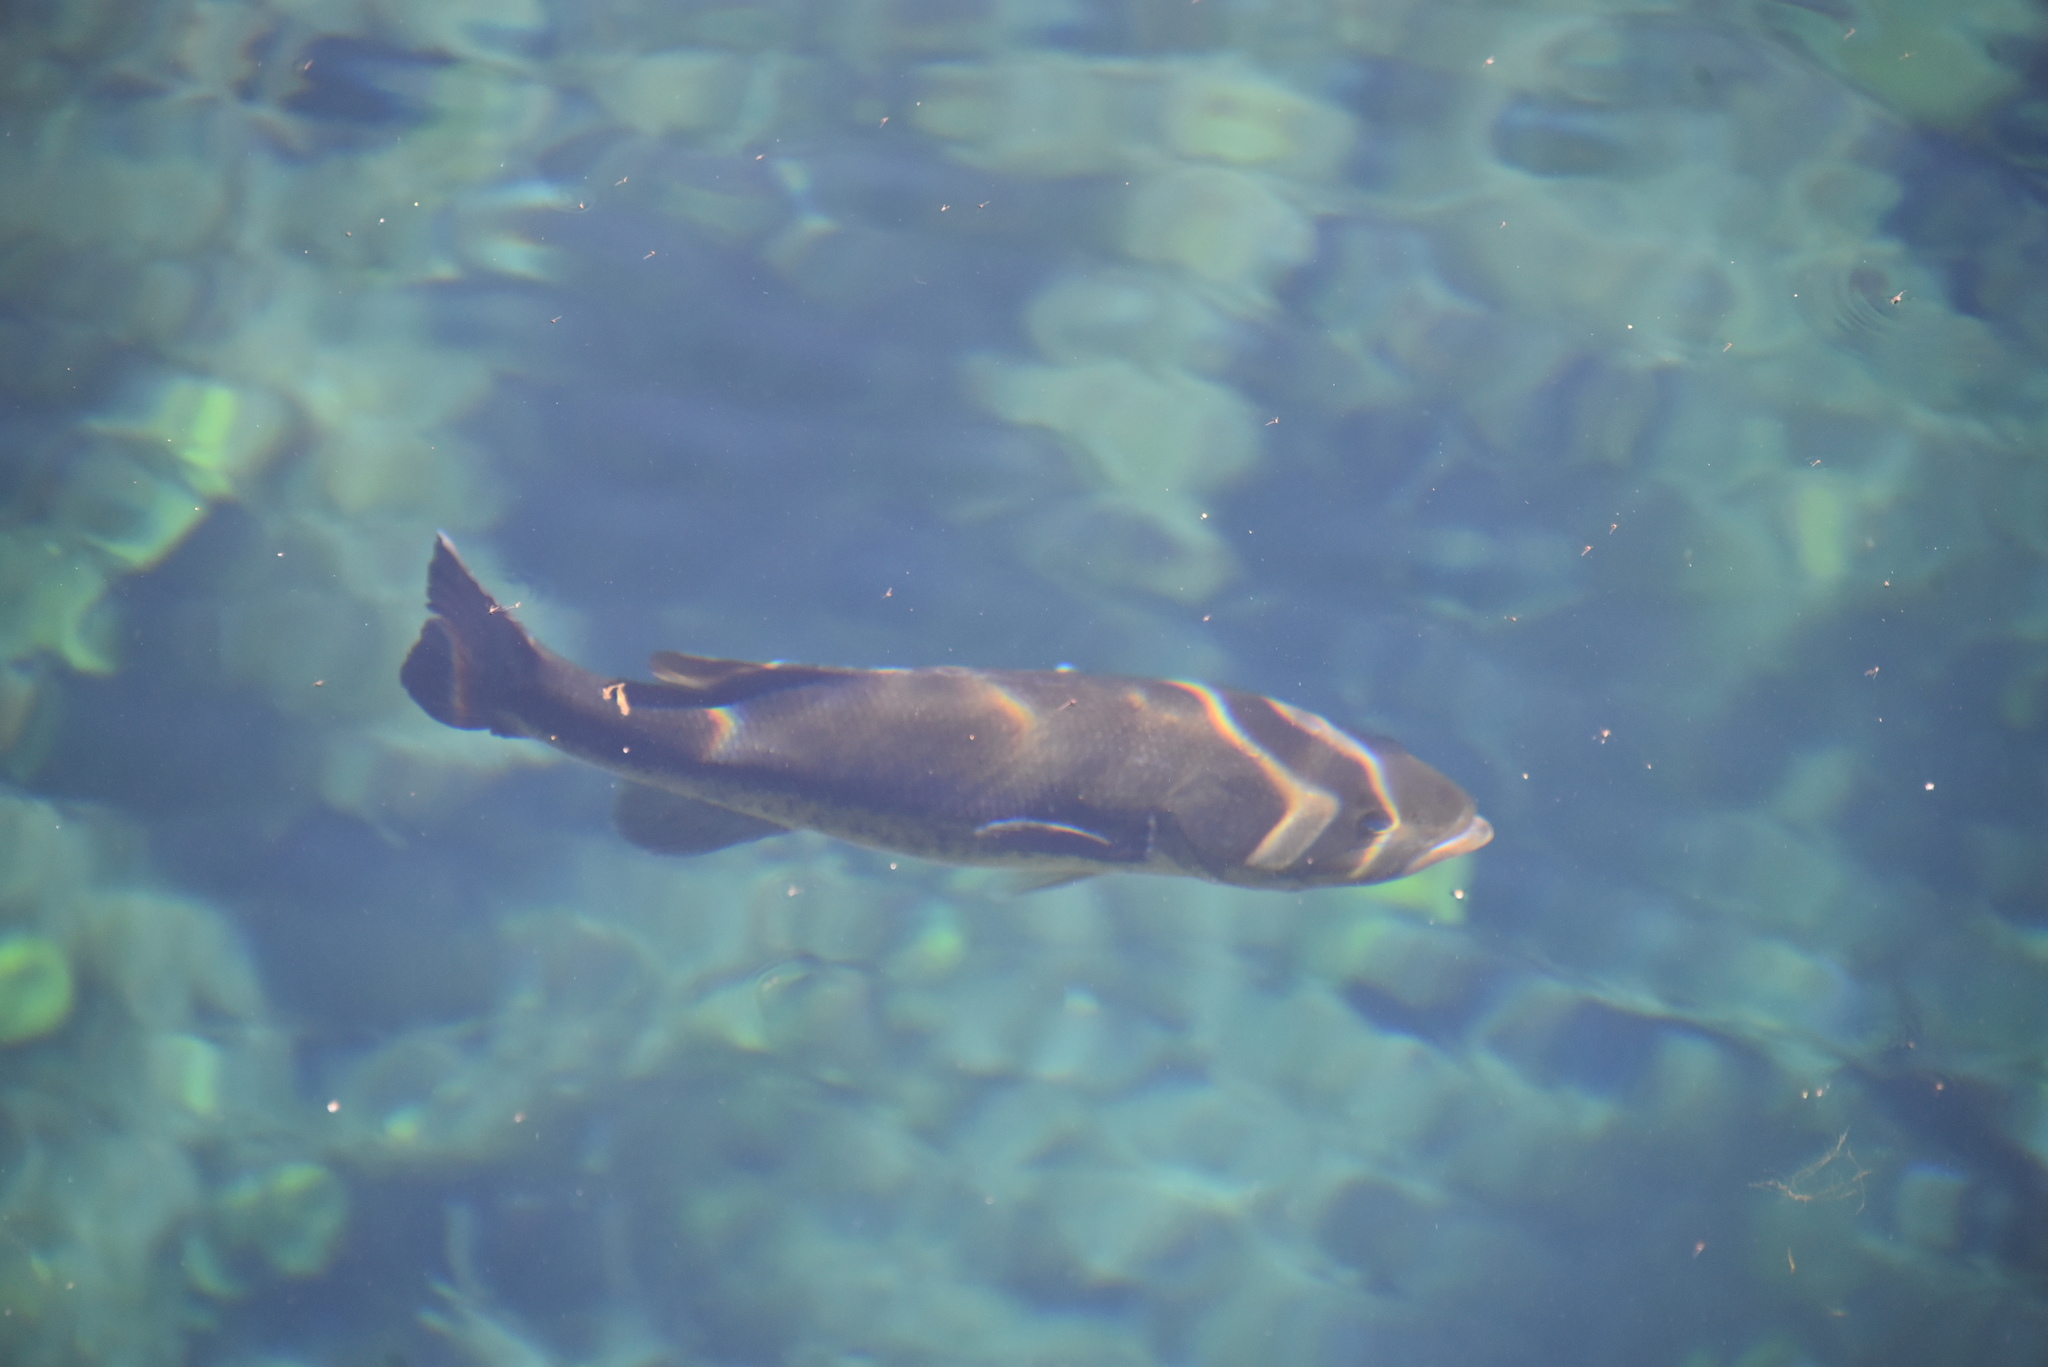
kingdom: Animalia
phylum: Chordata
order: Perciformes
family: Centrarchidae
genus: Micropterus
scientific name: Micropterus
